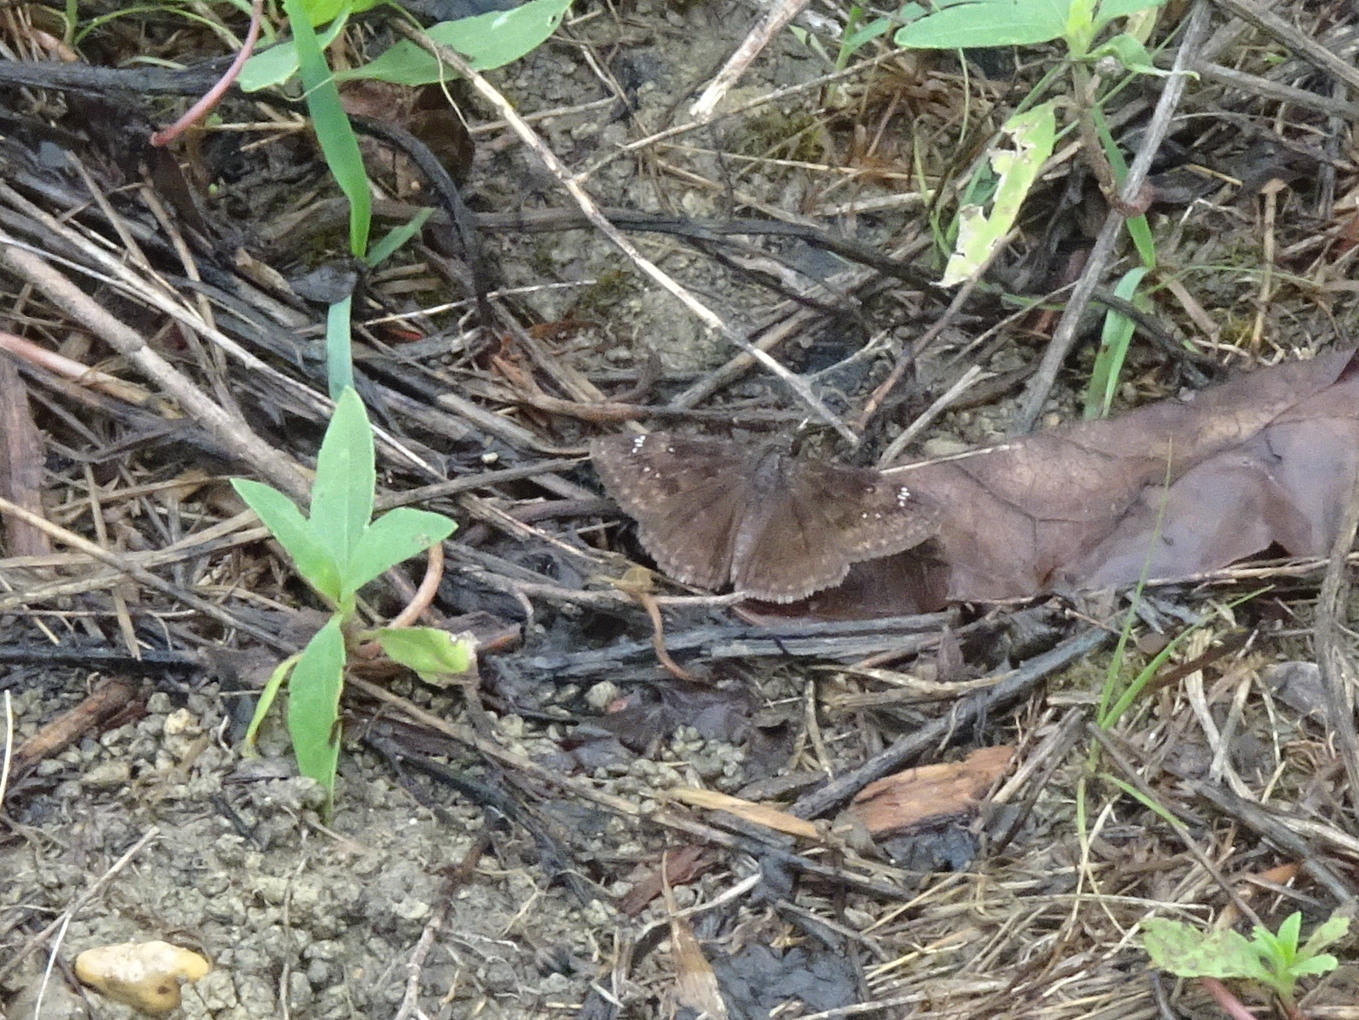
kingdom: Animalia
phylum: Arthropoda
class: Insecta
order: Lepidoptera
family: Hesperiidae
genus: Erynnis
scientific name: Erynnis funeralis
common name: Funereal duskywing
